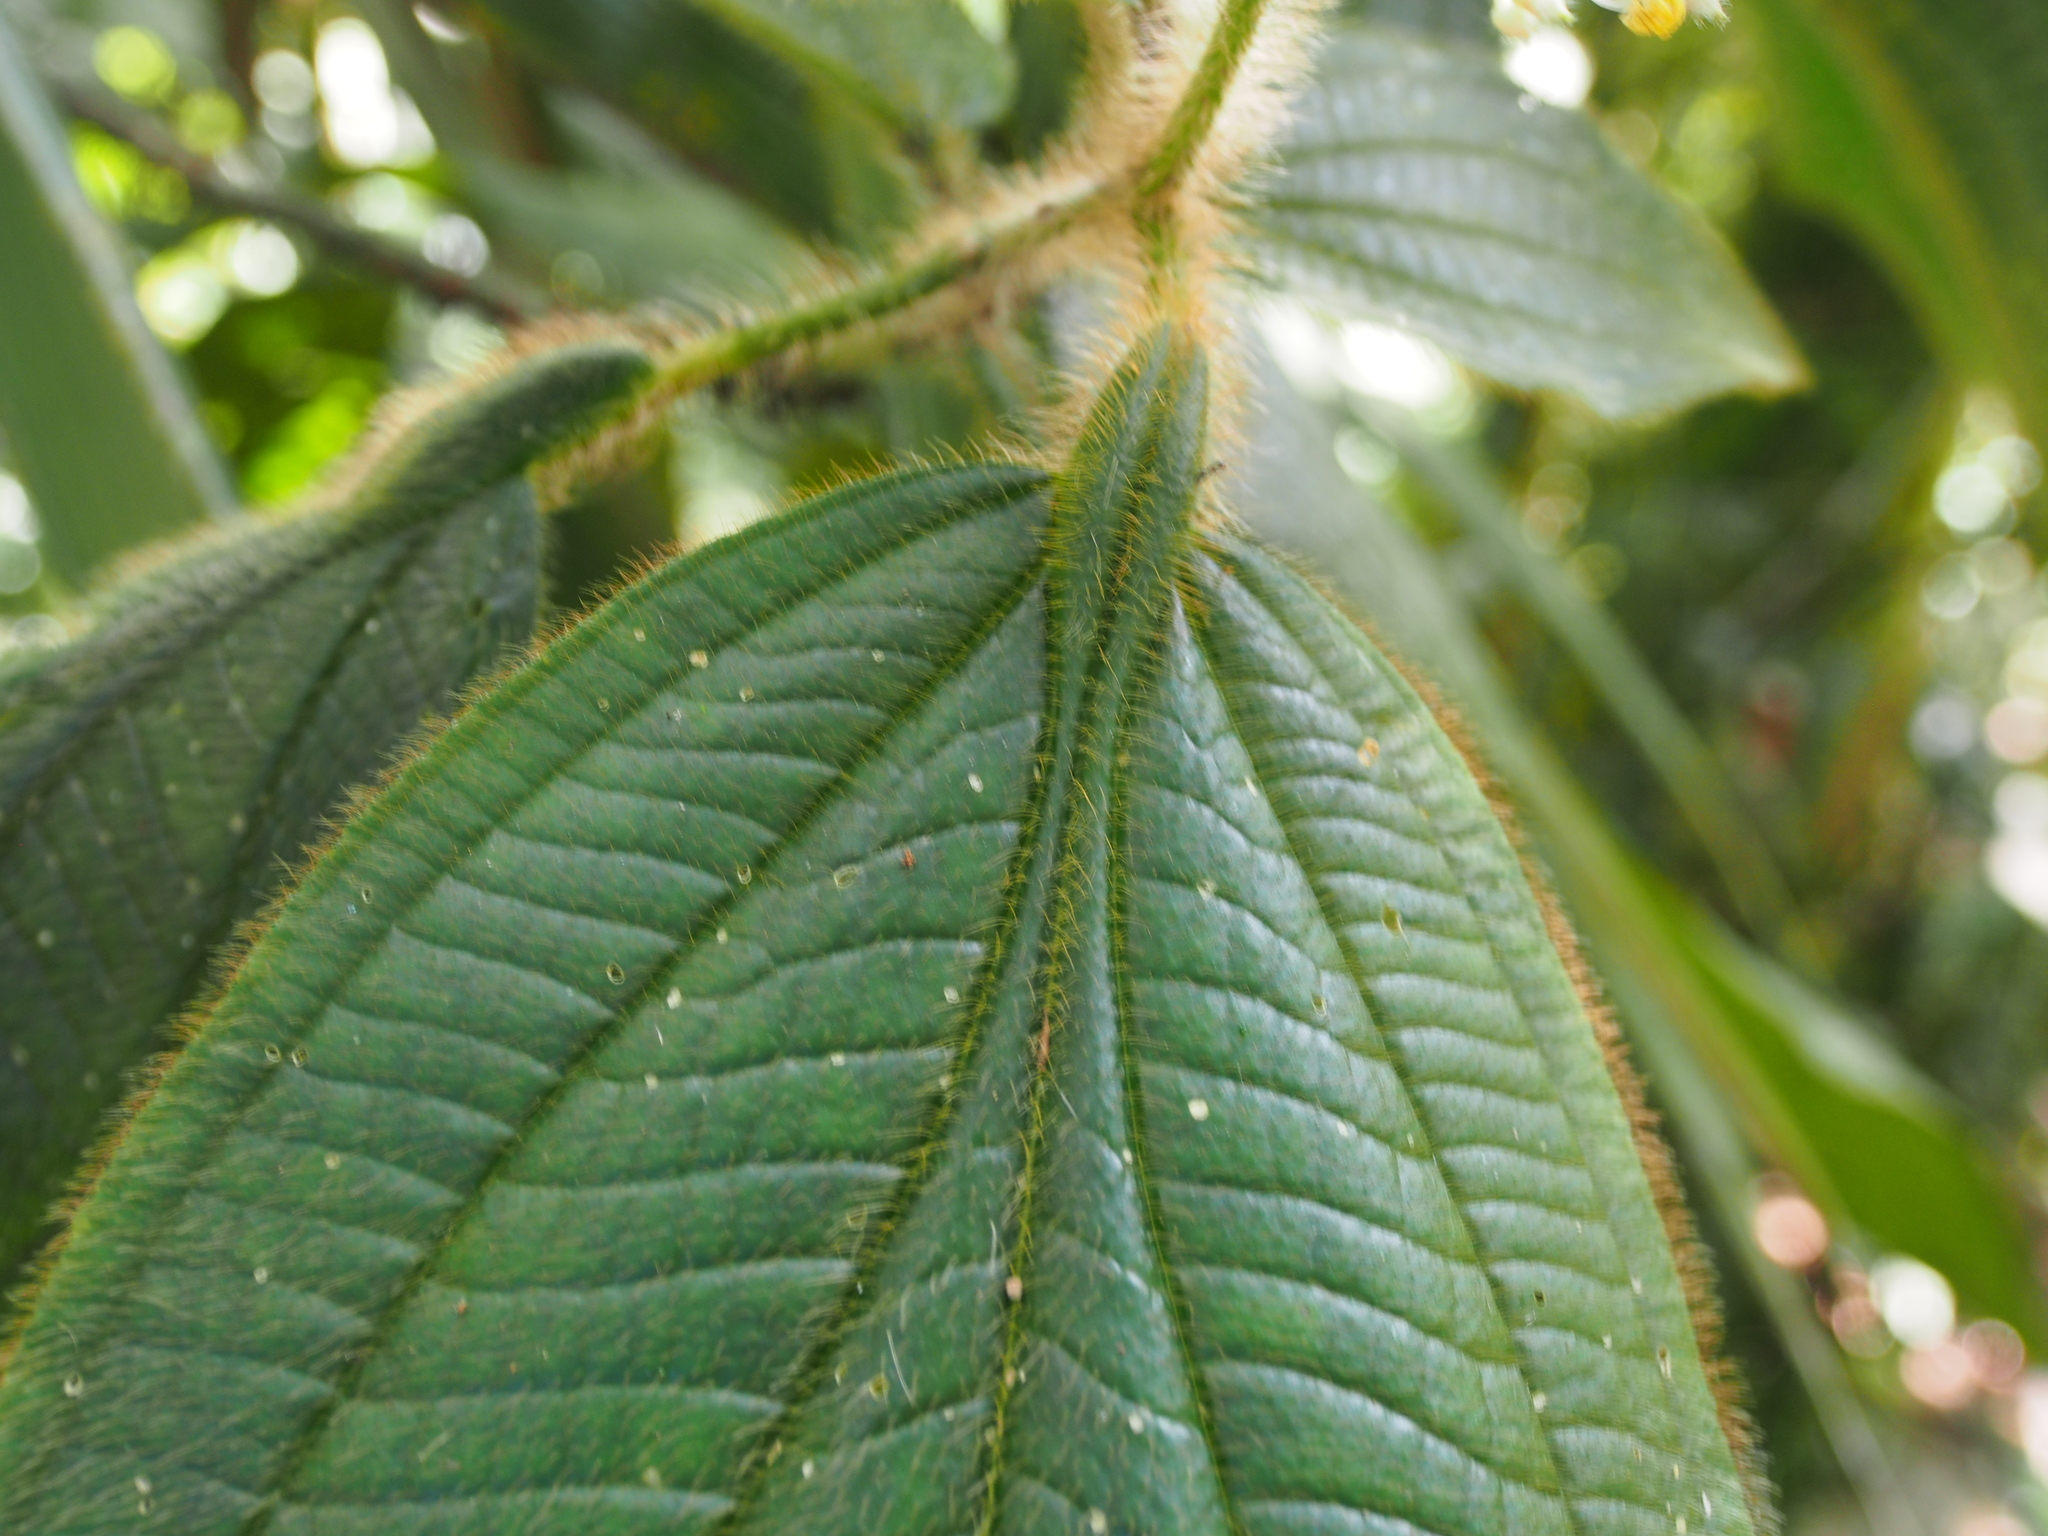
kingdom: Plantae
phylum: Tracheophyta
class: Magnoliopsida
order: Myrtales
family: Melastomataceae
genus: Miconia
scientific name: Miconia conosetosa
